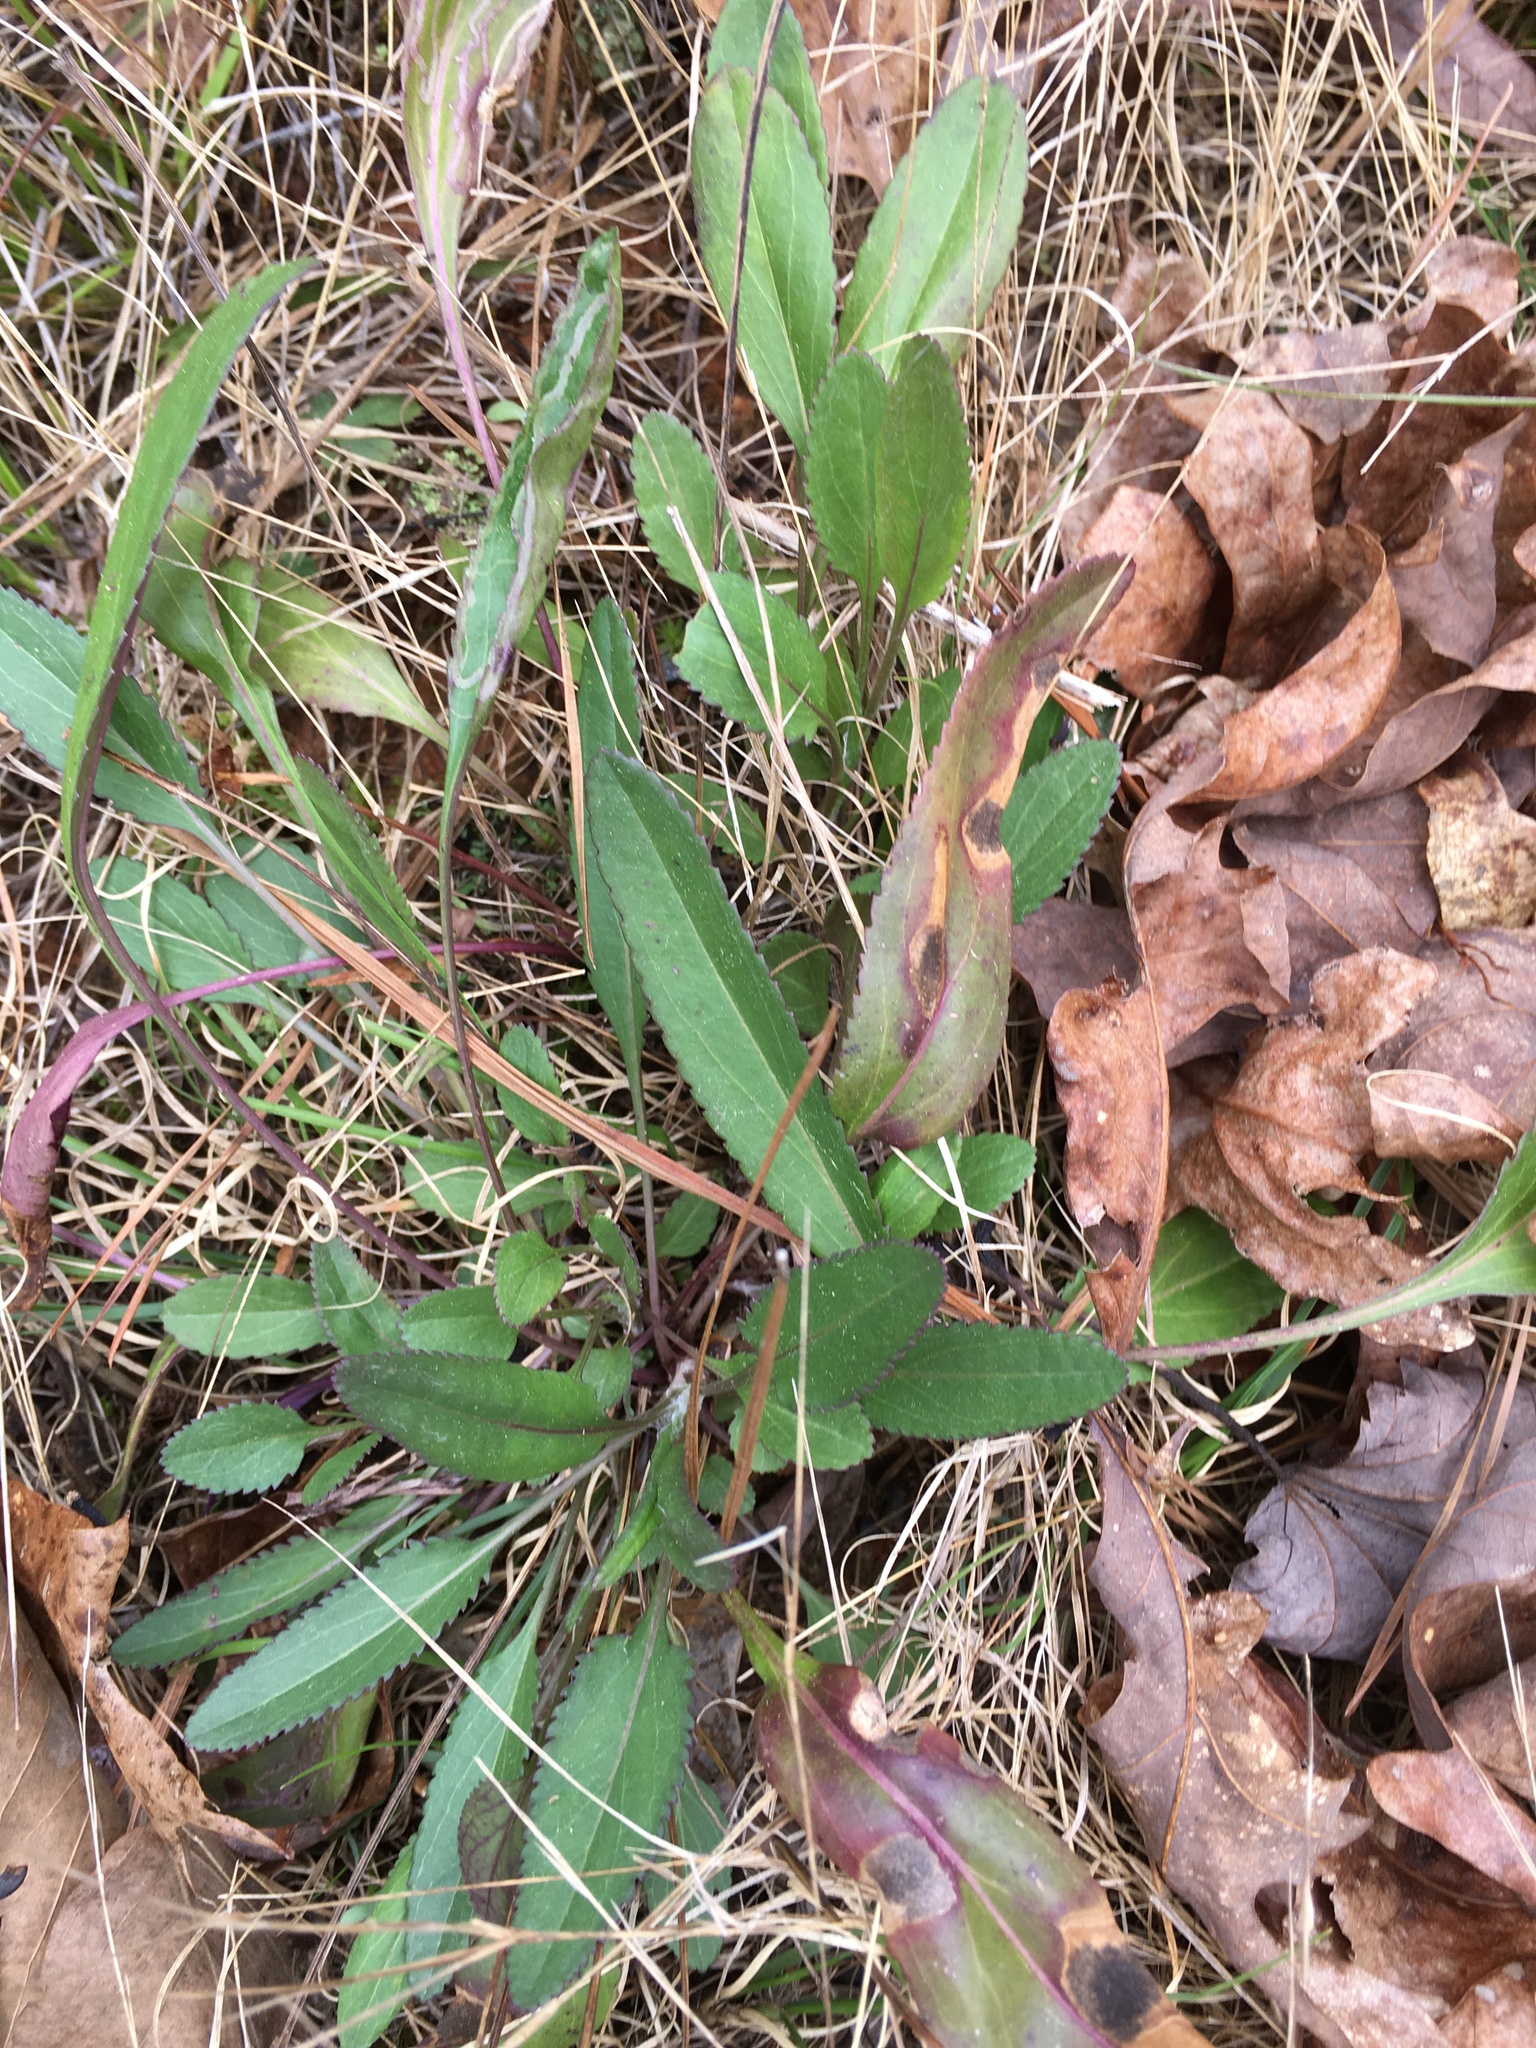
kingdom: Plantae
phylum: Tracheophyta
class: Magnoliopsida
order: Asterales
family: Asteraceae
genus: Packera
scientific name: Packera anonyma
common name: Small ragwort
